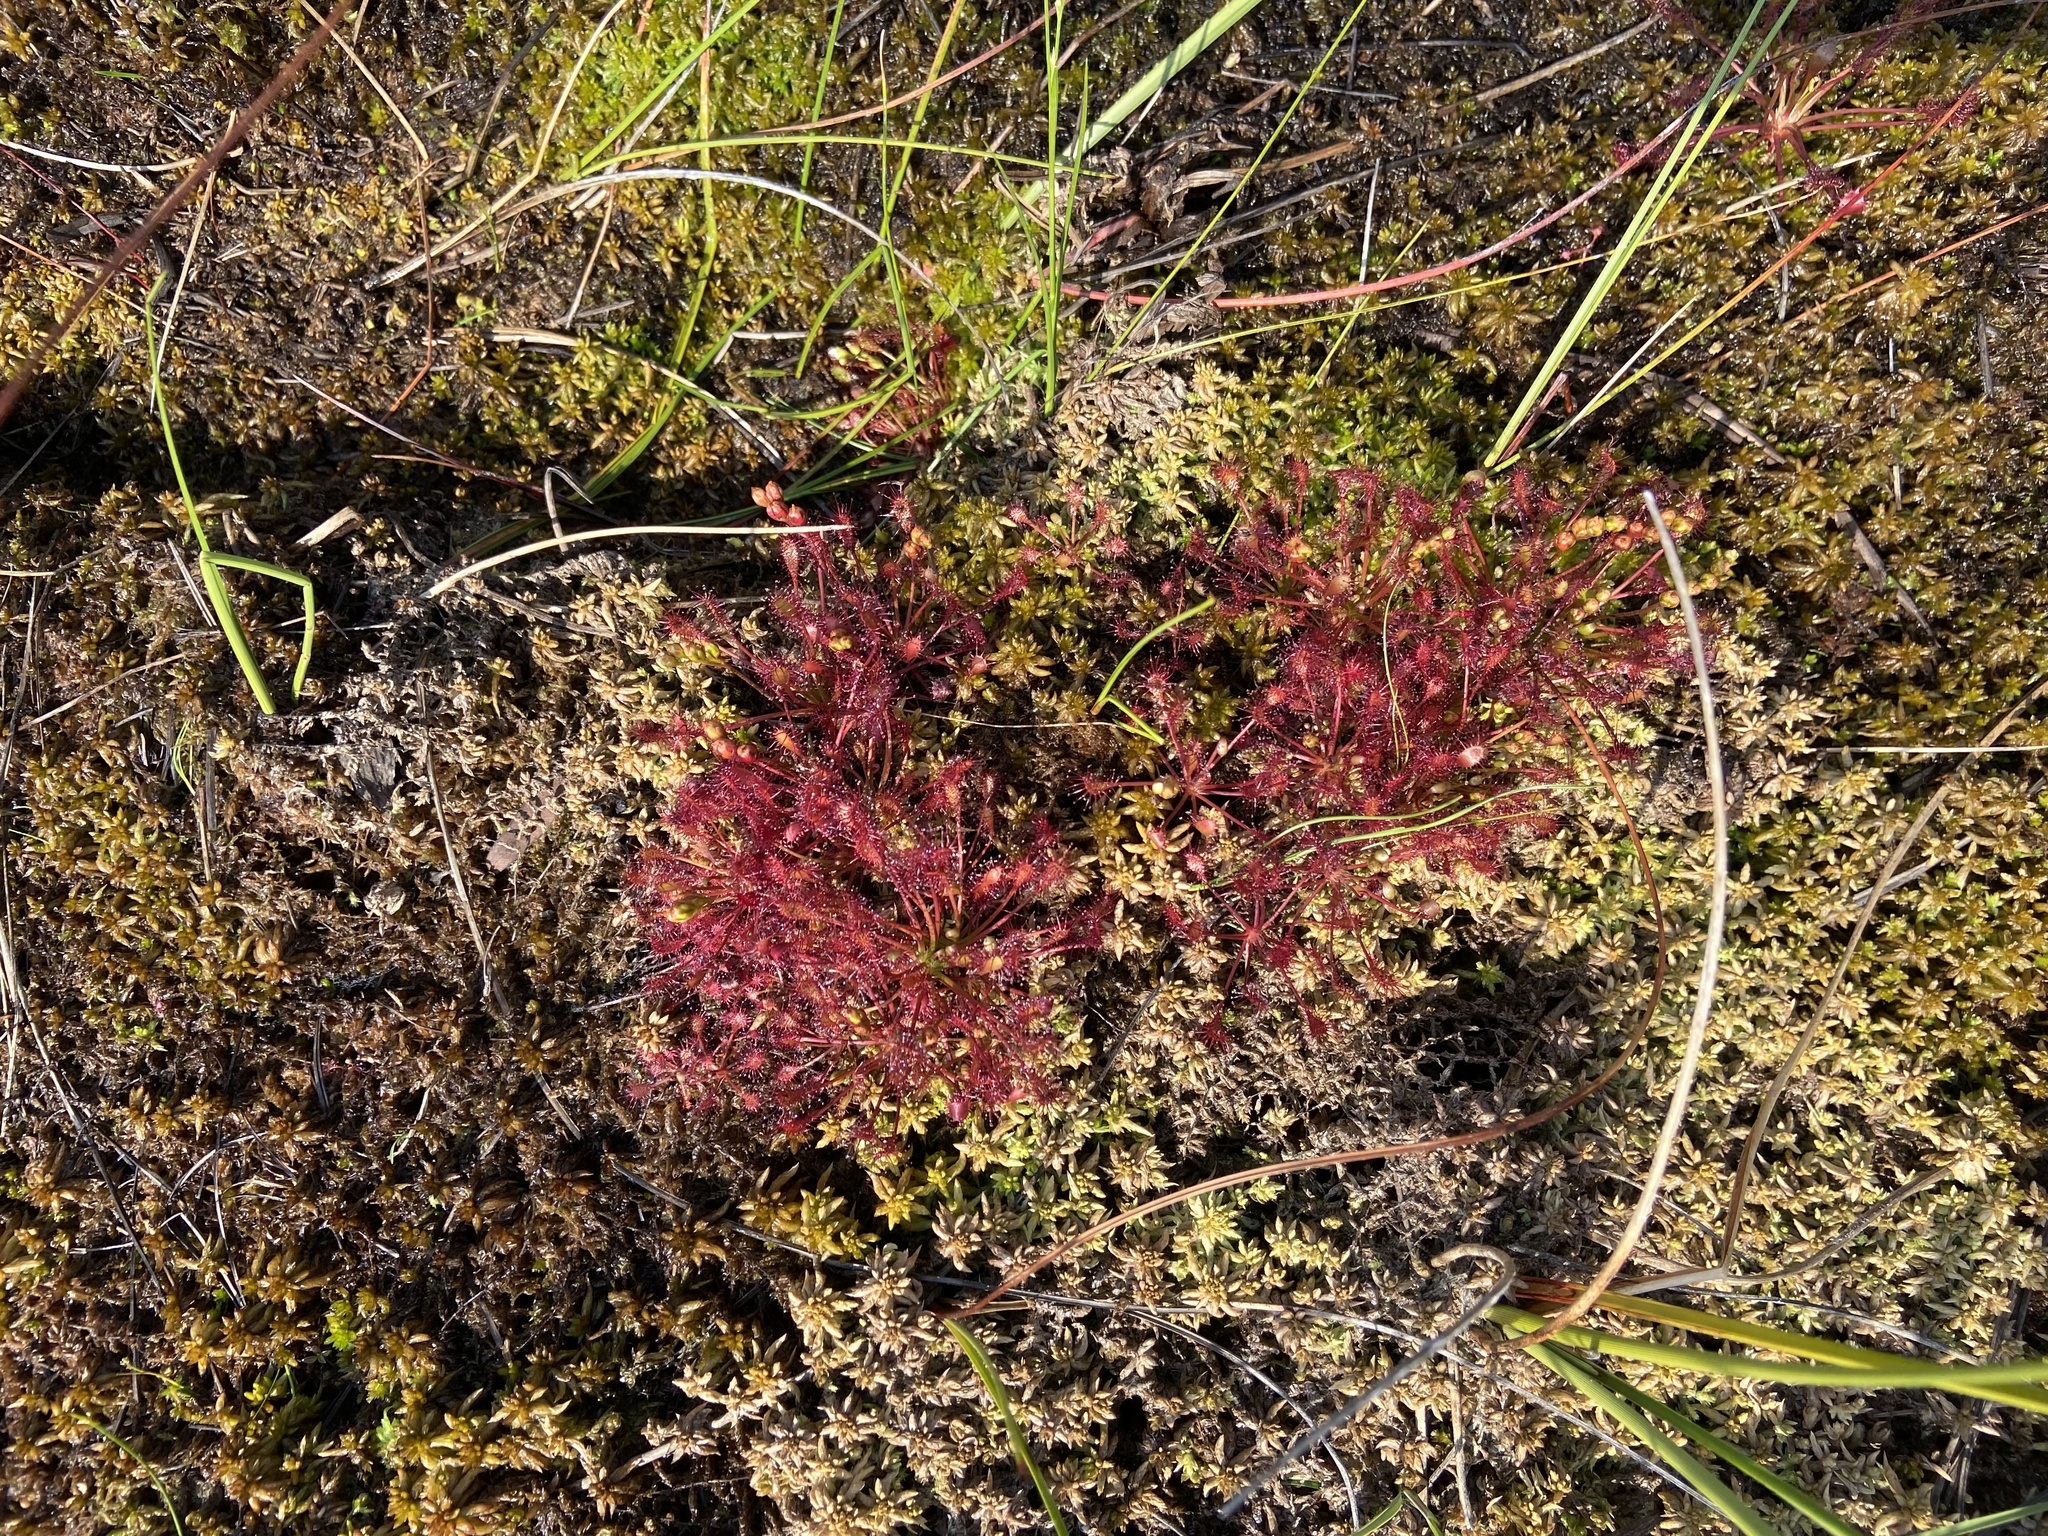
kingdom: Plantae
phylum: Tracheophyta
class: Magnoliopsida
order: Caryophyllales
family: Droseraceae
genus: Drosera
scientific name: Drosera intermedia
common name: Oblong-leaved sundew
